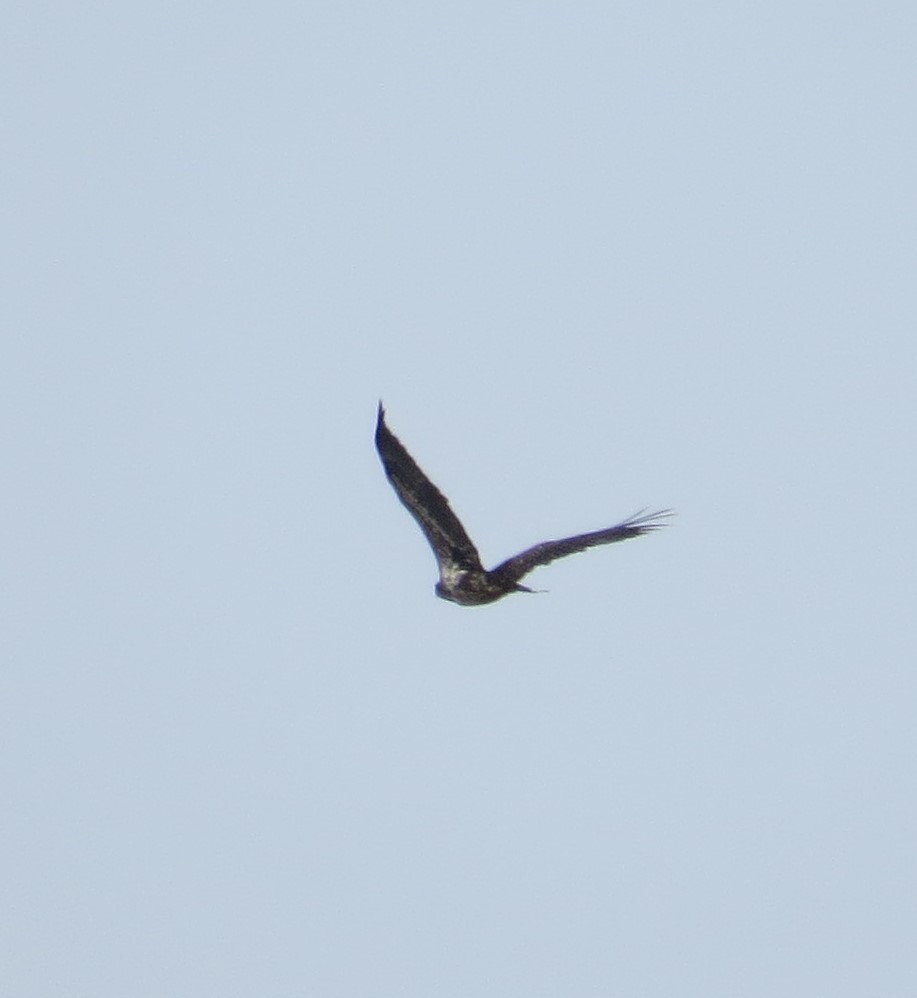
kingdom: Animalia
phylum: Chordata
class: Aves
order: Accipitriformes
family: Accipitridae
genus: Haliaeetus
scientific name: Haliaeetus leucocephalus
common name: Bald eagle
